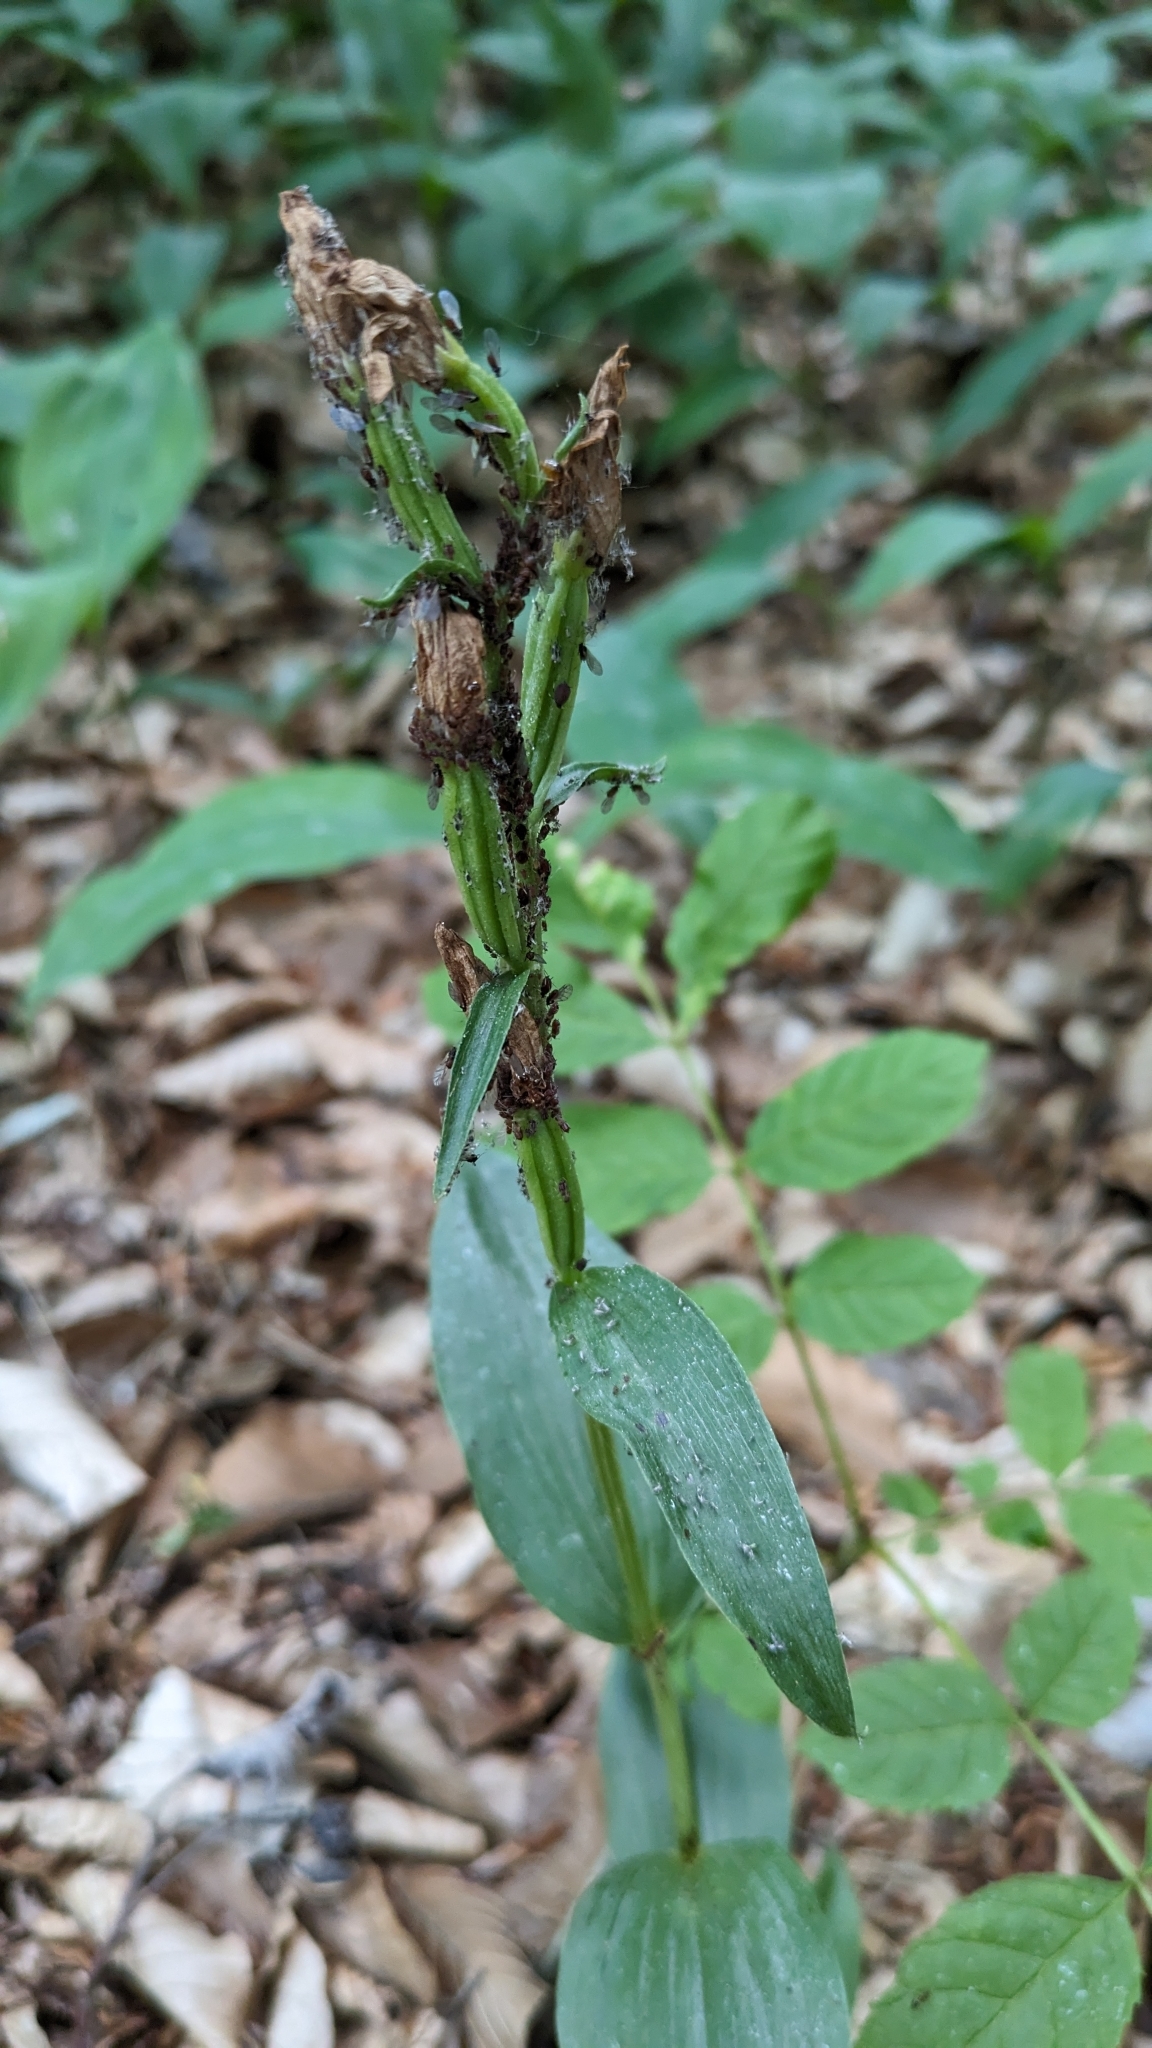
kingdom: Plantae
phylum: Tracheophyta
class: Liliopsida
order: Asparagales
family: Orchidaceae
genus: Cephalanthera
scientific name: Cephalanthera damasonium
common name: White helleborine
